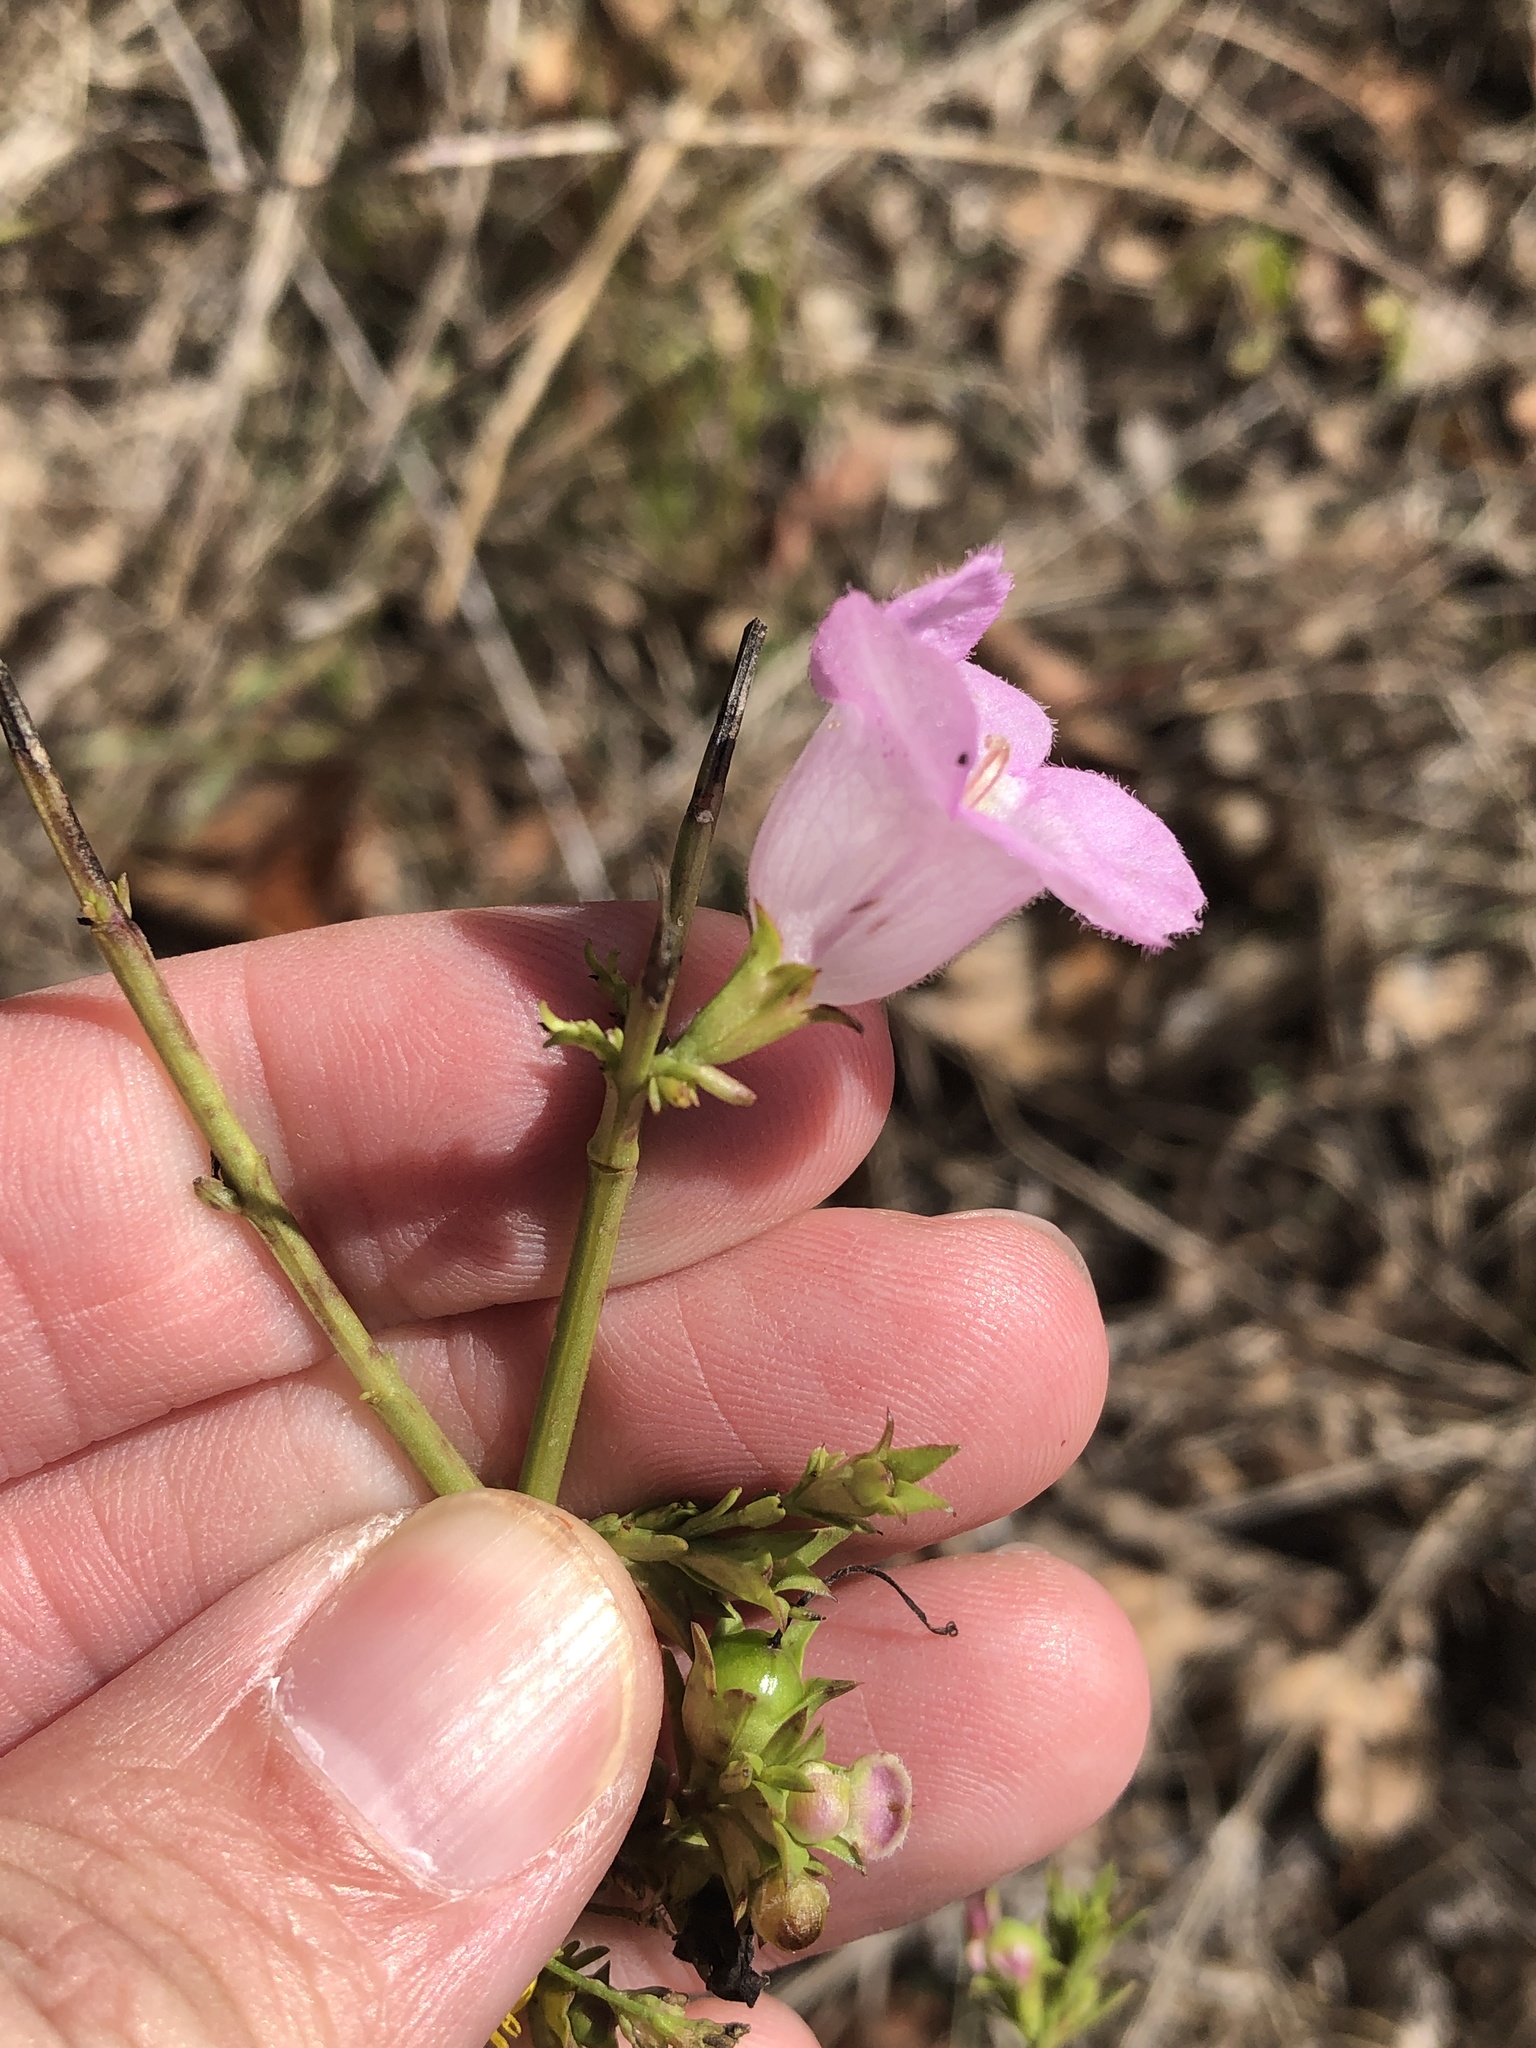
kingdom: Plantae
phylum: Tracheophyta
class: Magnoliopsida
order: Lamiales
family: Orobanchaceae
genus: Agalinis
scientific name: Agalinis heterophylla
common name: Prairie agalinis
